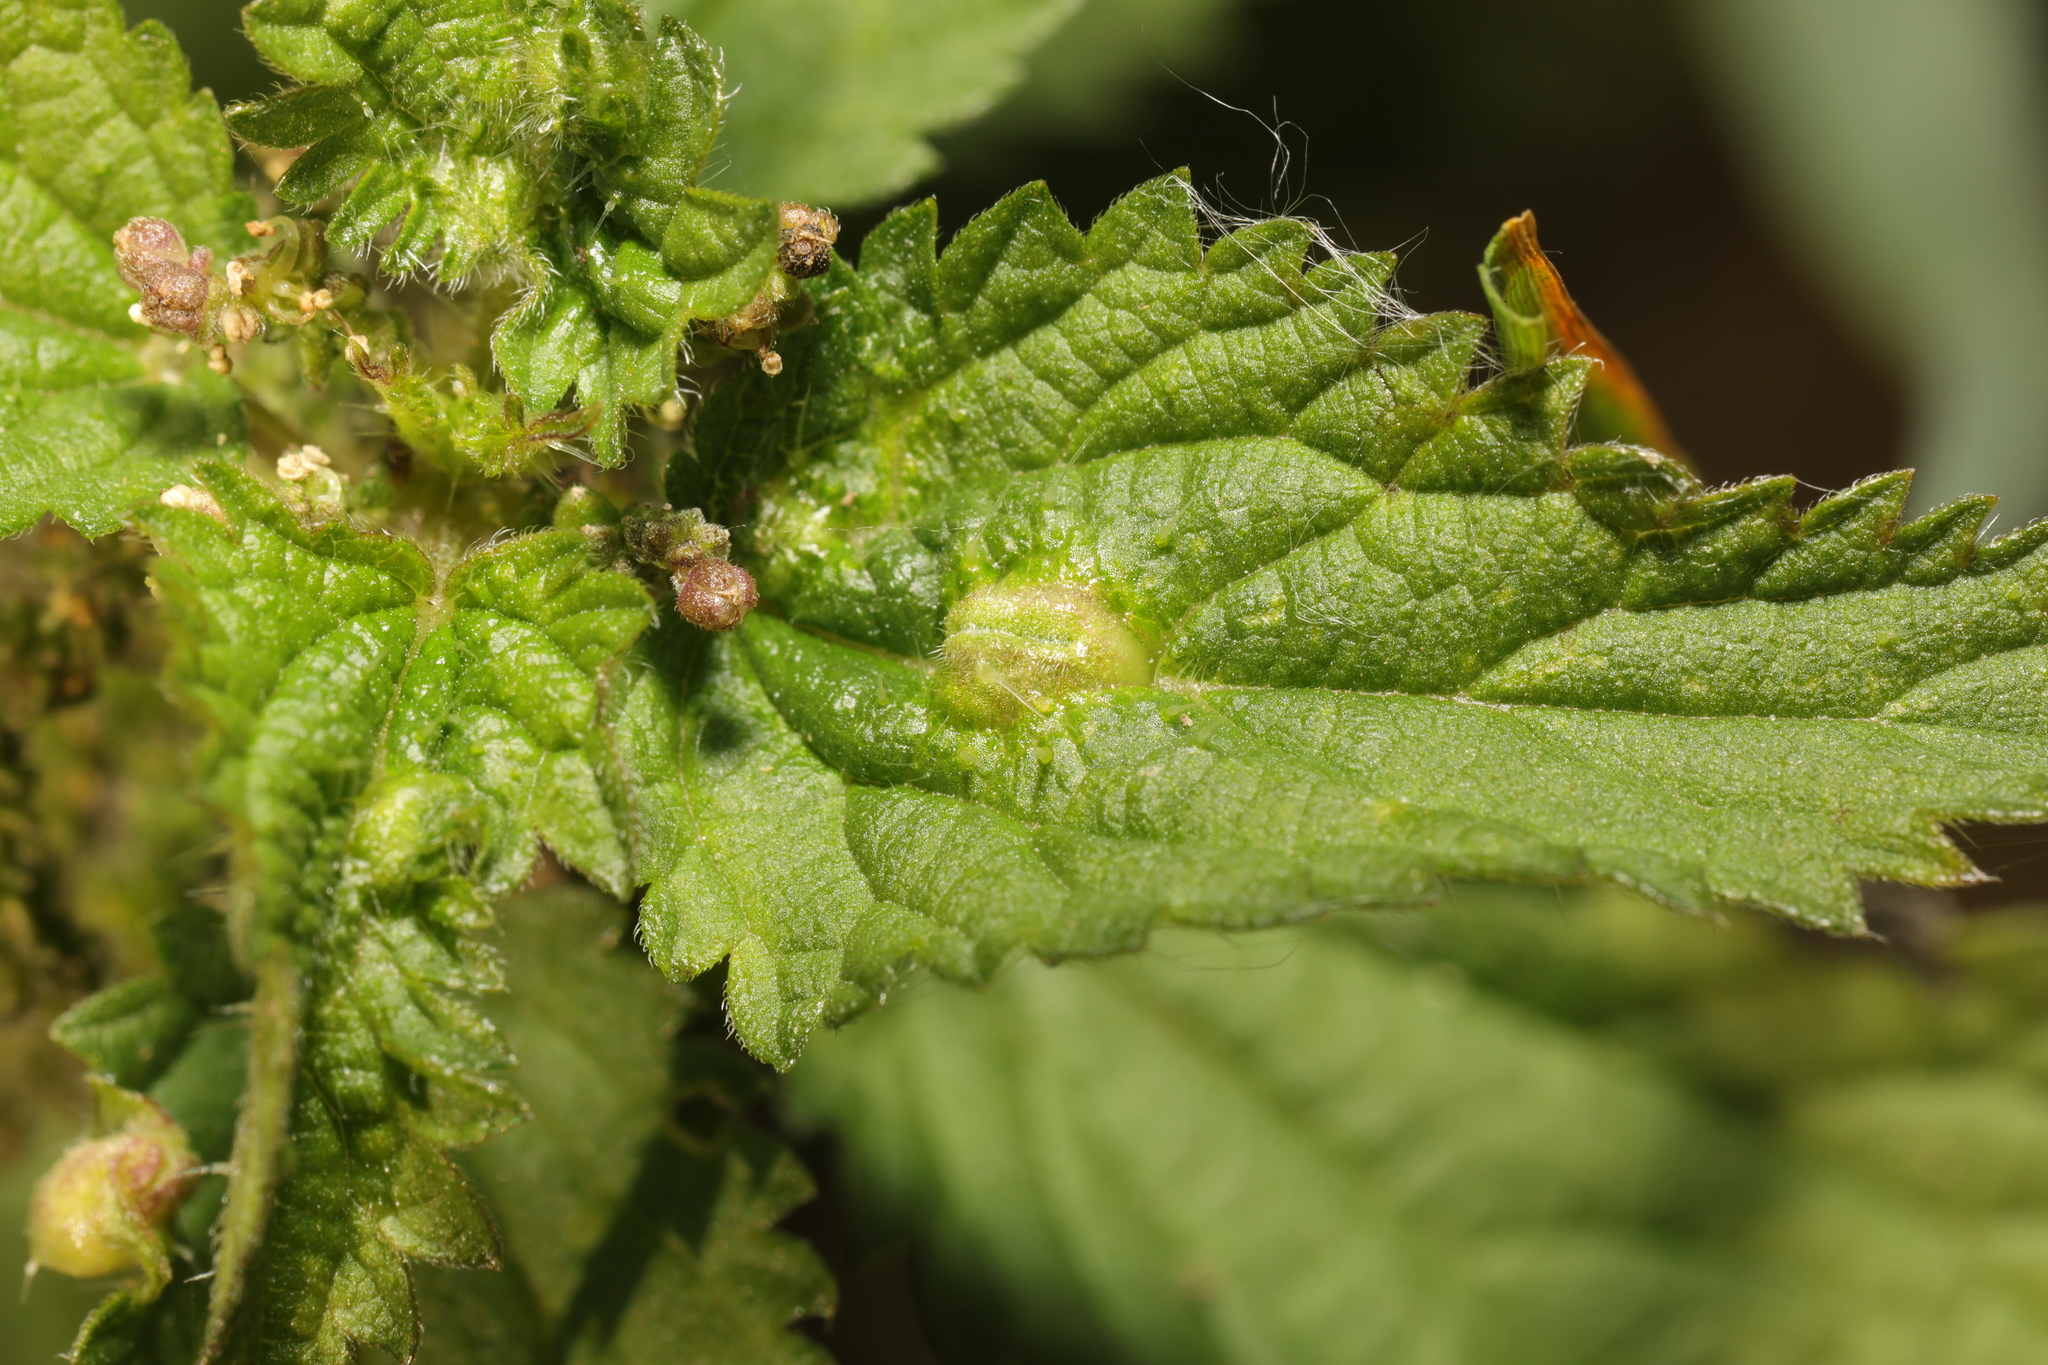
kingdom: Animalia
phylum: Arthropoda
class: Insecta
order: Diptera
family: Cecidomyiidae
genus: Dasineura
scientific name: Dasineura urticae
